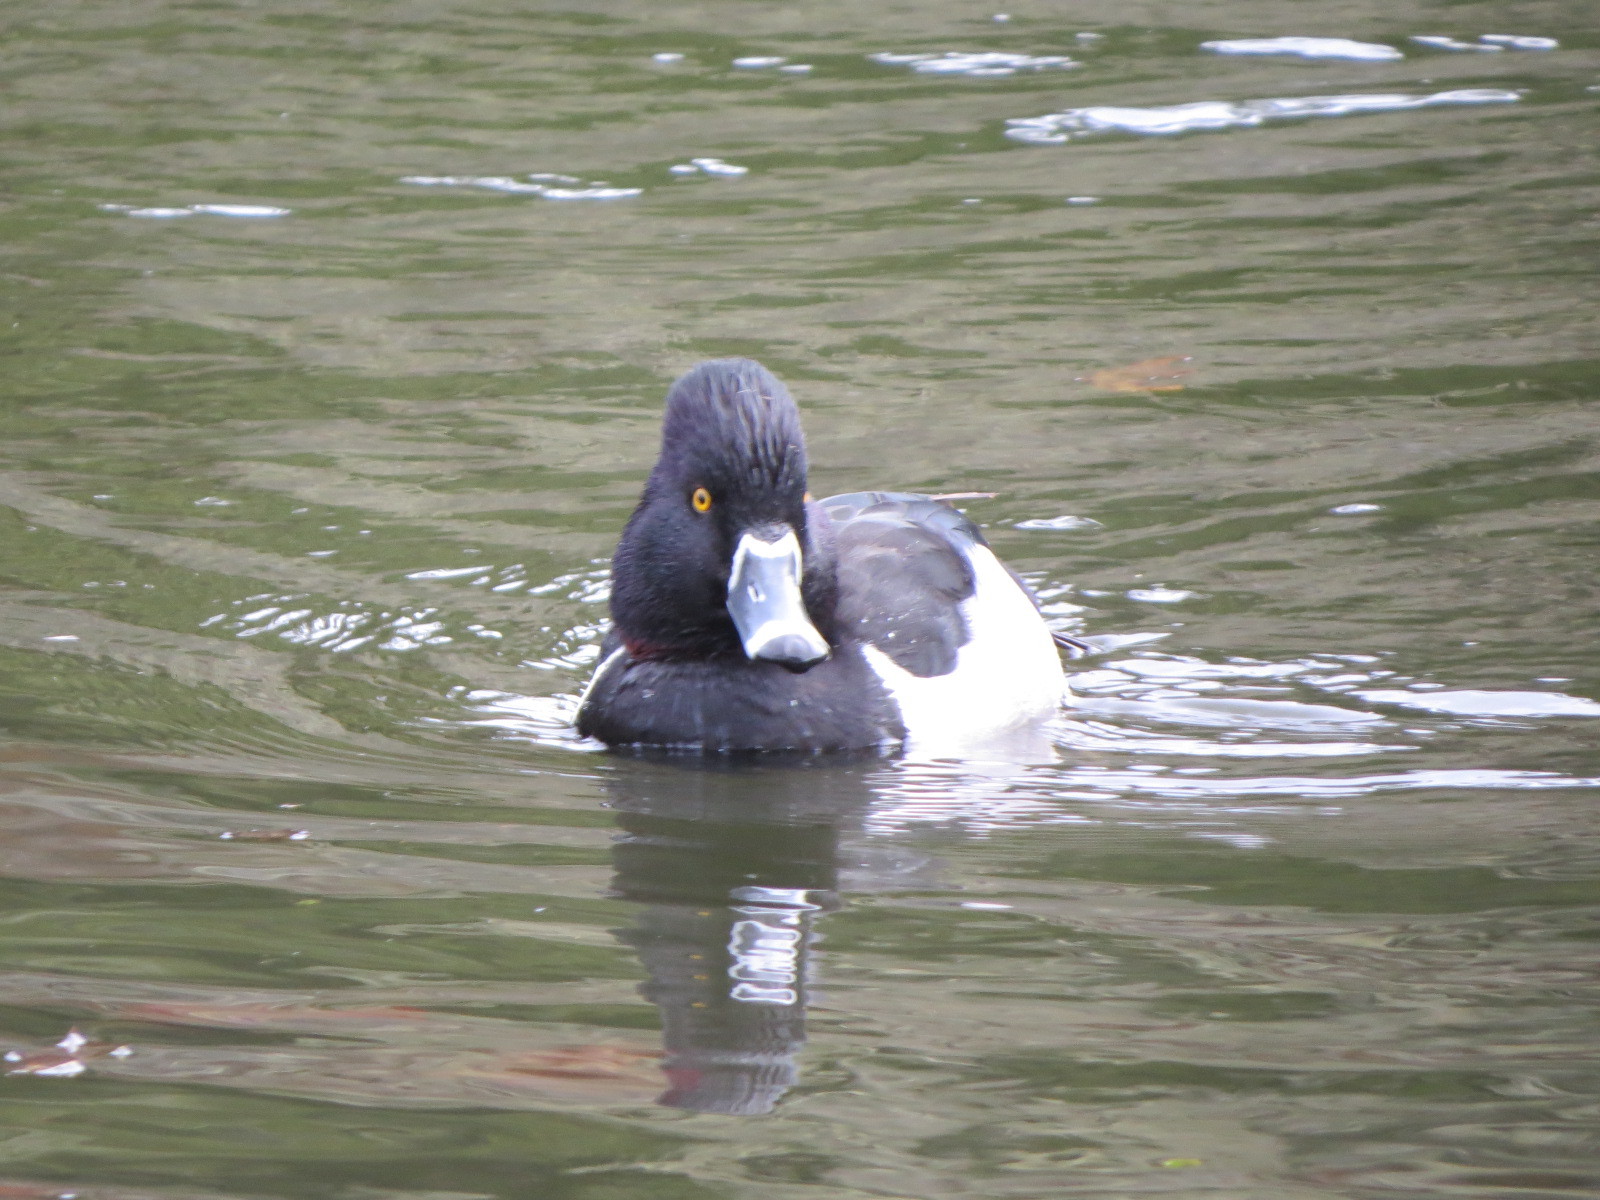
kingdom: Animalia
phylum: Chordata
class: Aves
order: Anseriformes
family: Anatidae
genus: Aythya
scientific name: Aythya collaris
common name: Ring-necked duck
